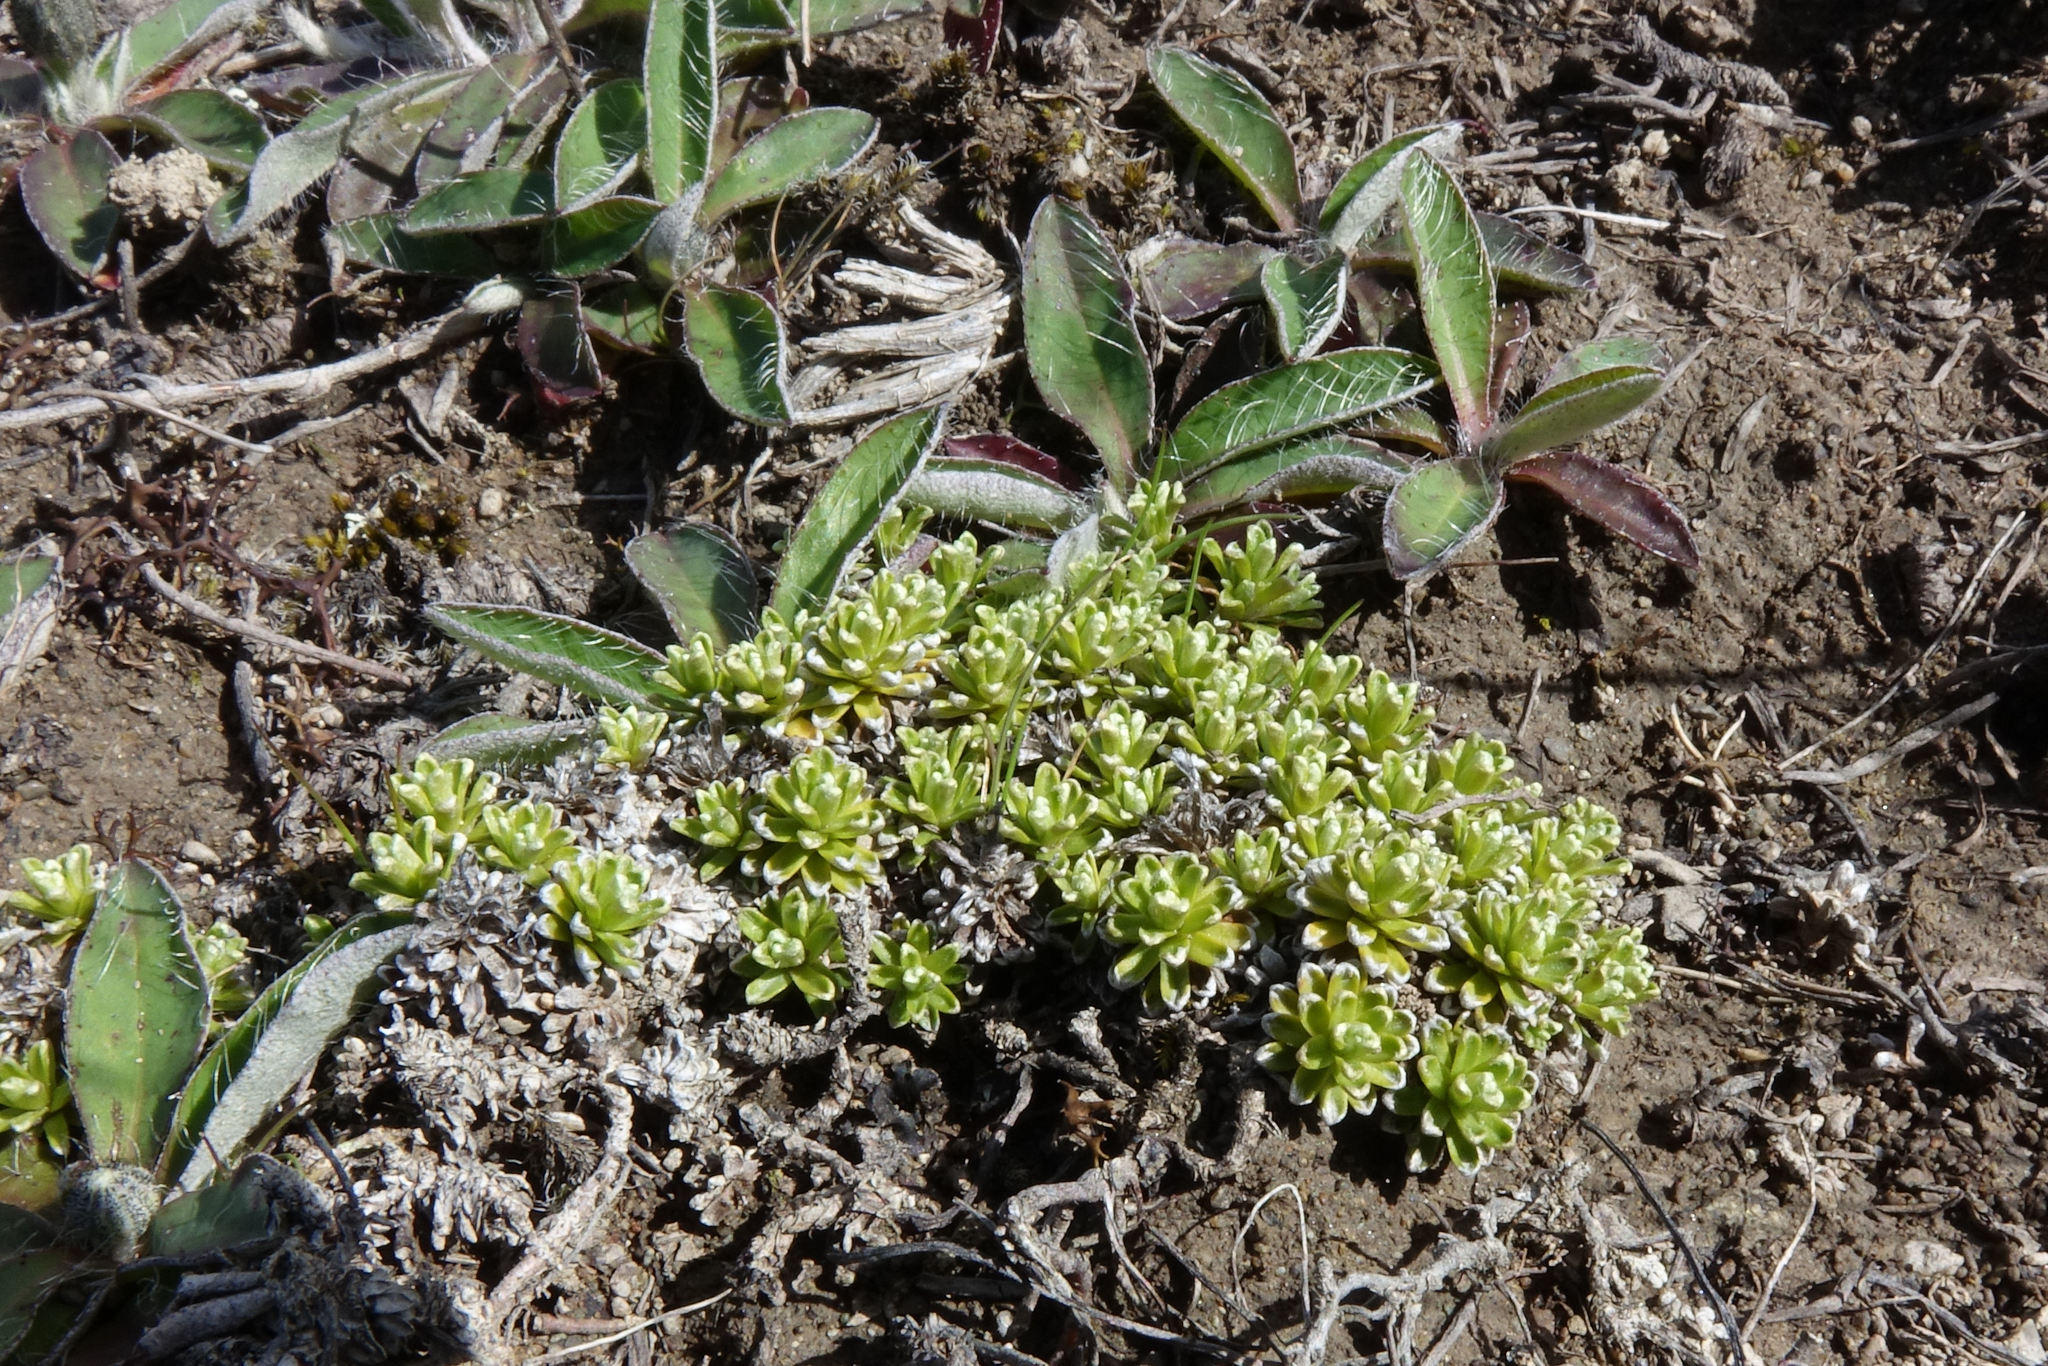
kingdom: Plantae
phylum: Tracheophyta
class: Magnoliopsida
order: Asterales
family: Asteraceae
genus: Raoulia
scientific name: Raoulia subsericea
